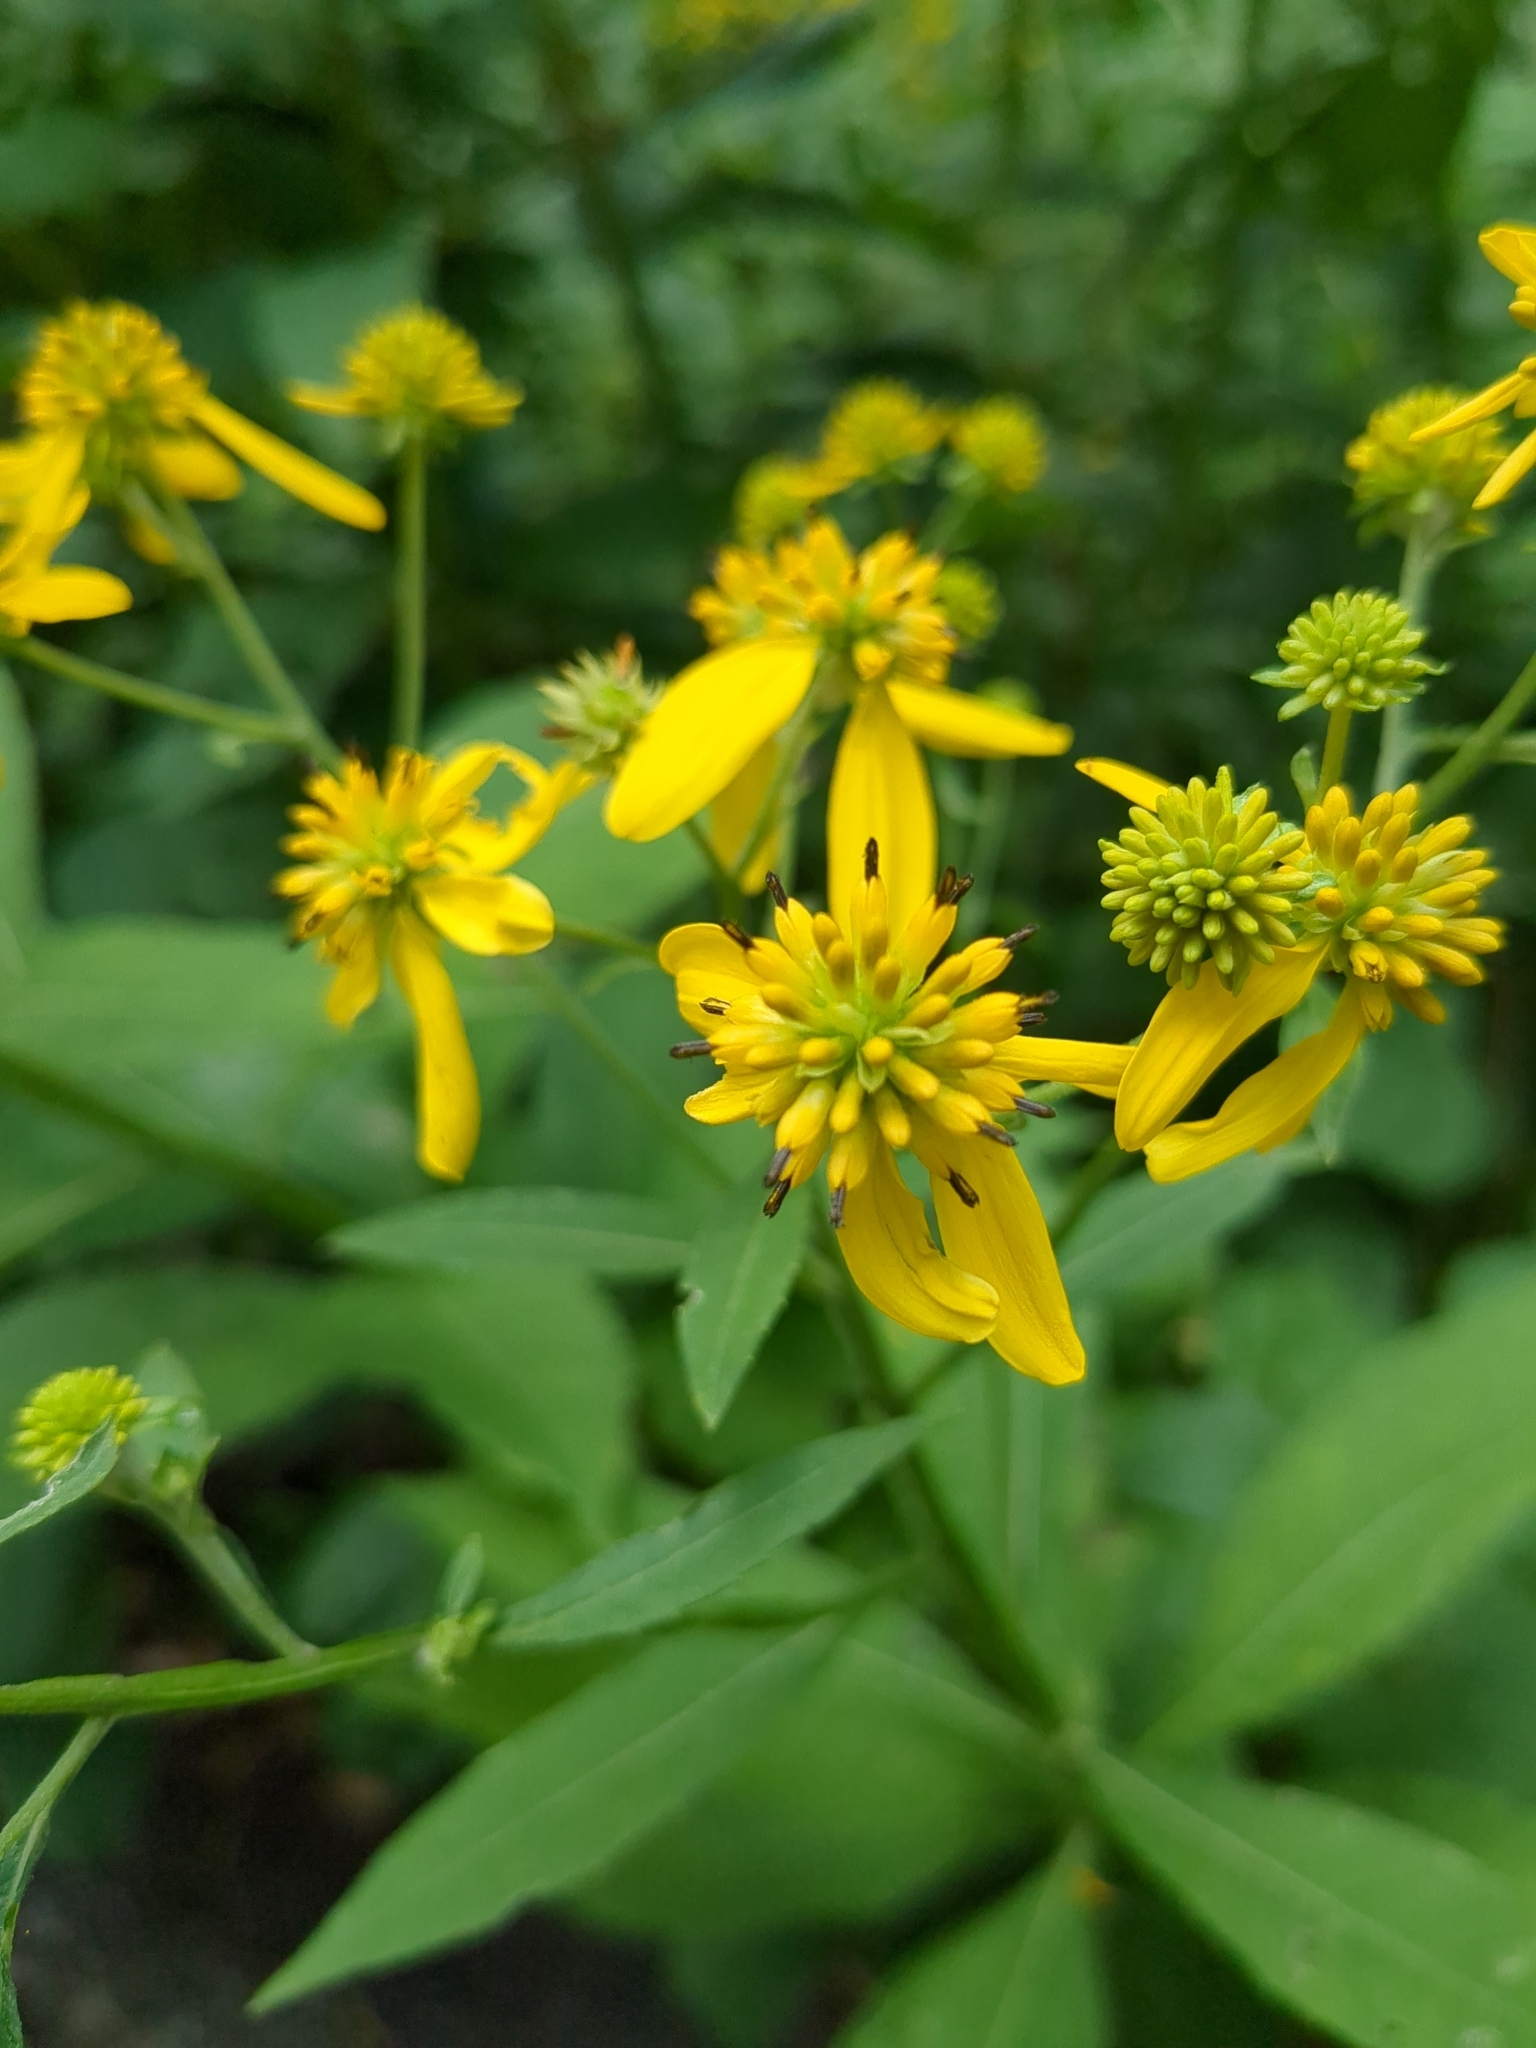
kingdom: Plantae
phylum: Tracheophyta
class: Magnoliopsida
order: Asterales
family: Asteraceae
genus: Verbesina
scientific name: Verbesina alternifolia
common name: Wingstem
